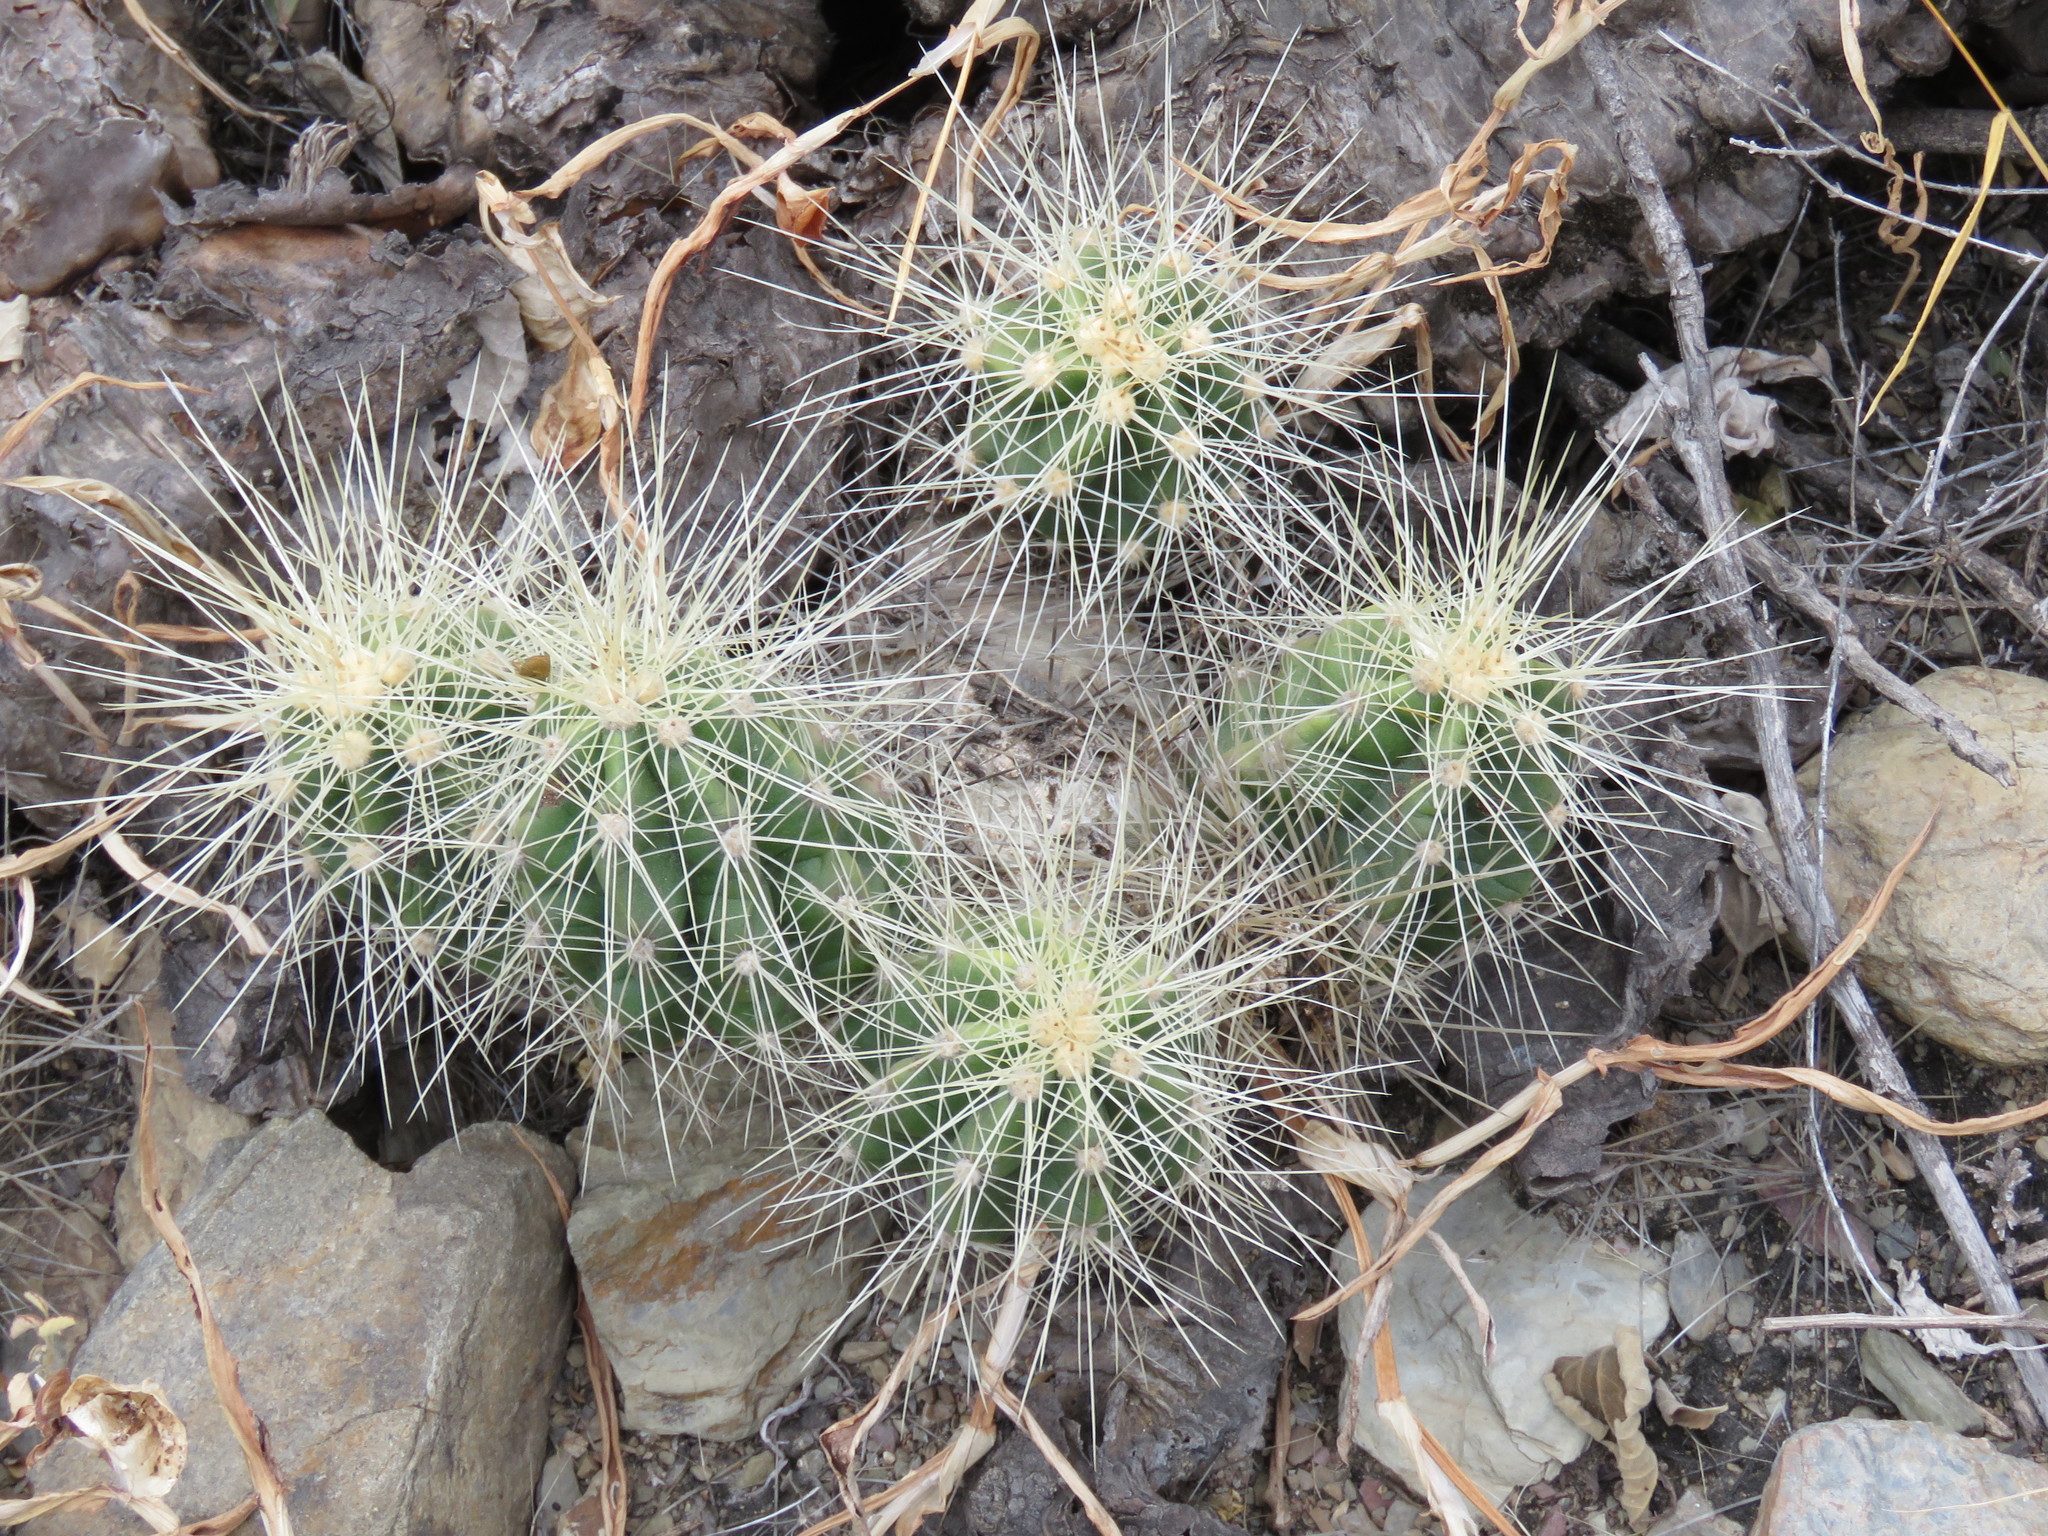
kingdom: Plantae
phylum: Tracheophyta
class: Magnoliopsida
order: Caryophyllales
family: Cactaceae
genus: Echinocereus
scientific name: Echinocereus cinerascens
